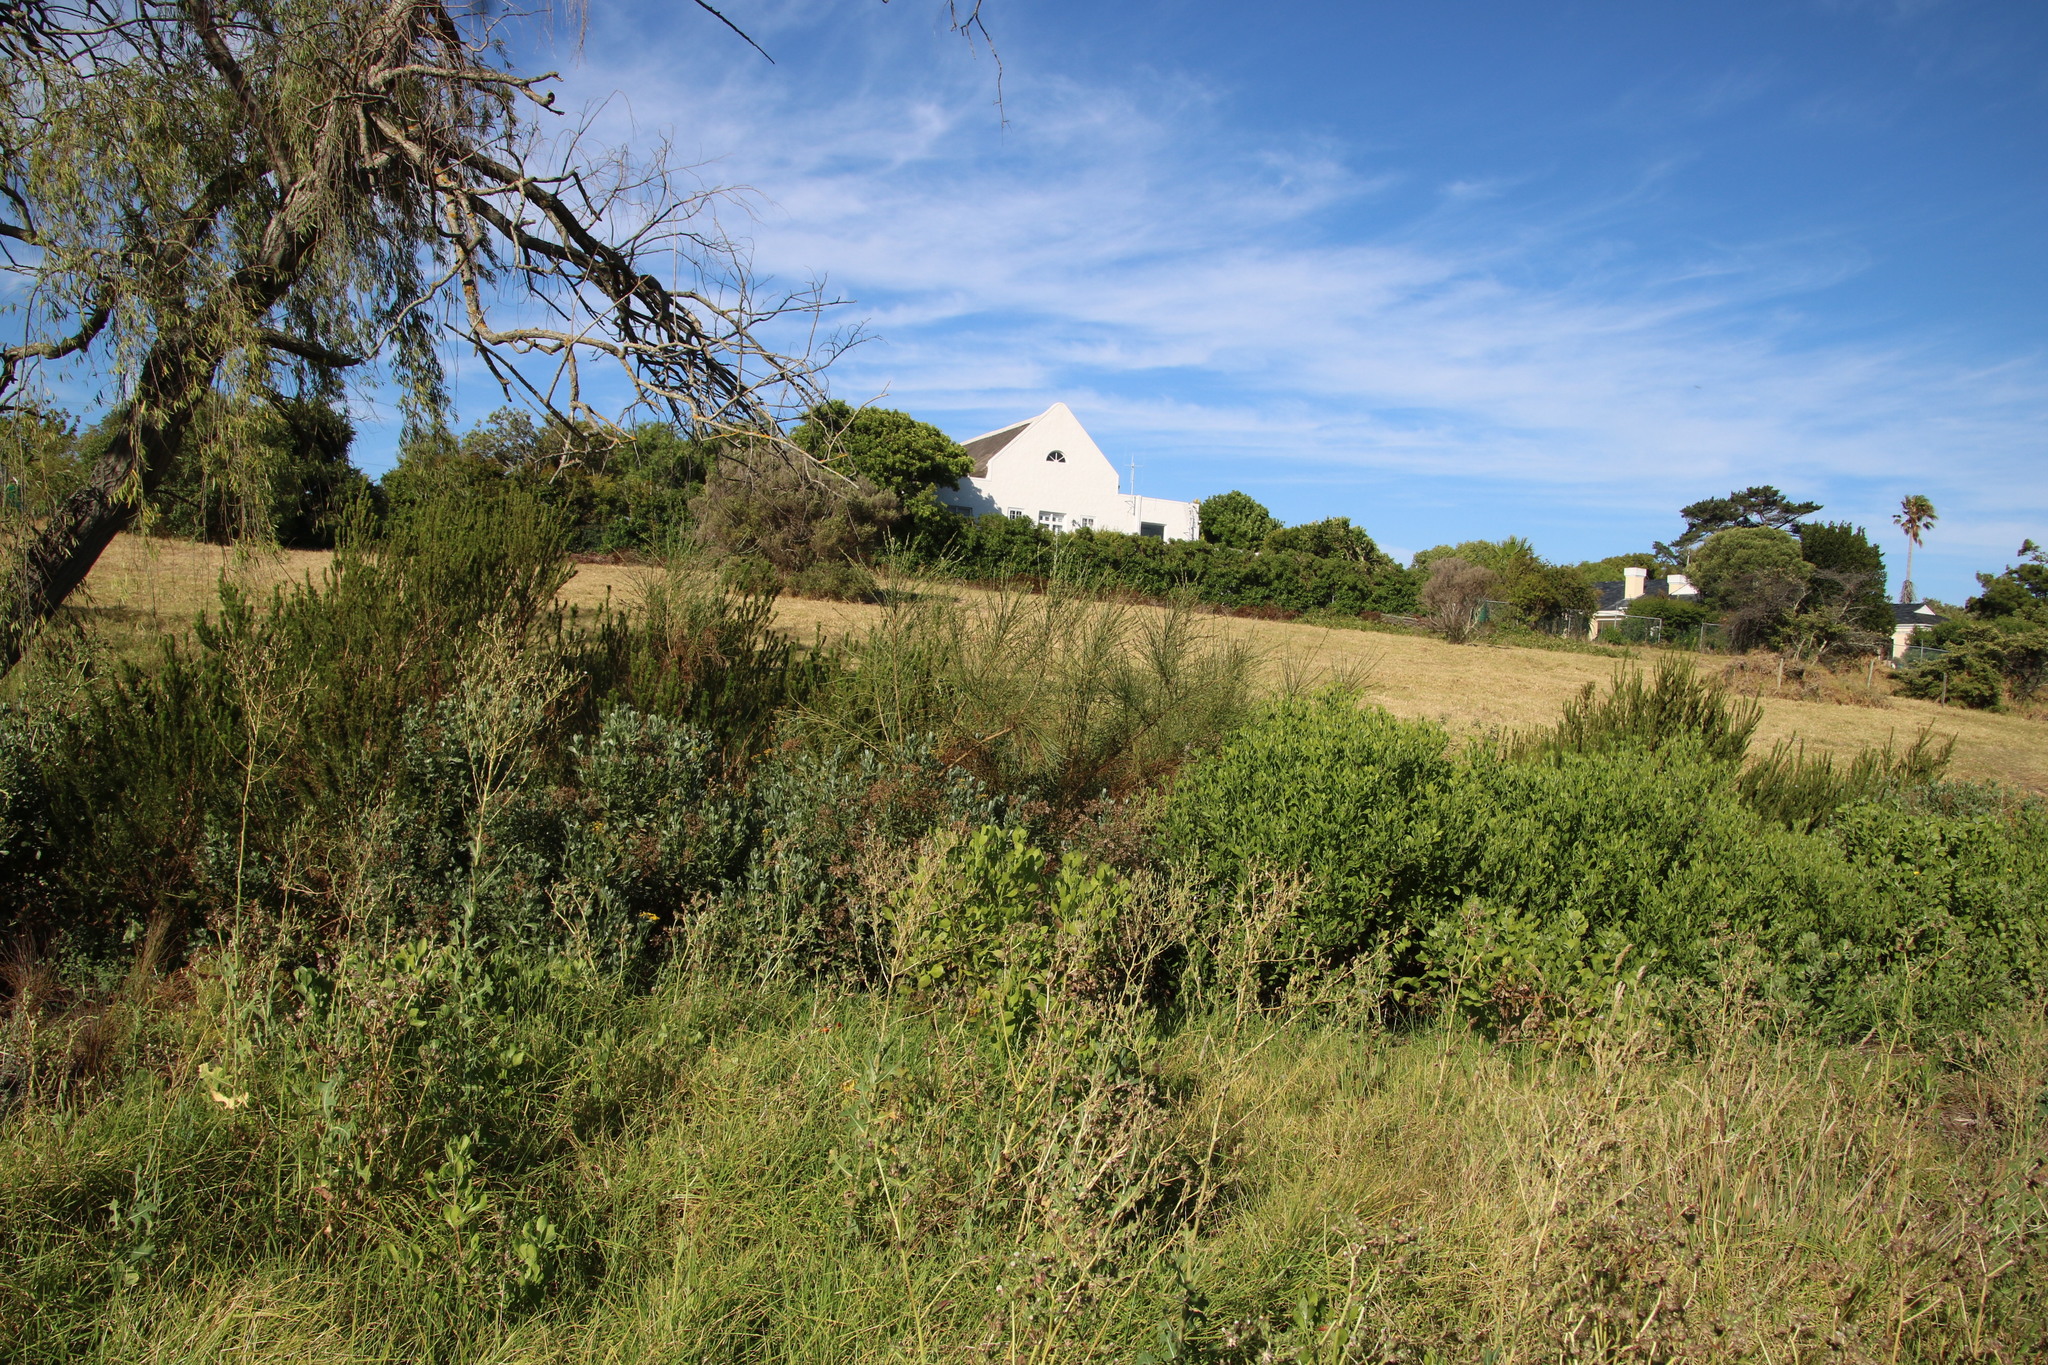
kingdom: Plantae
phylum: Tracheophyta
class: Magnoliopsida
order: Fabales
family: Fabaceae
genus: Psoralea
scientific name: Psoralea aphylla
